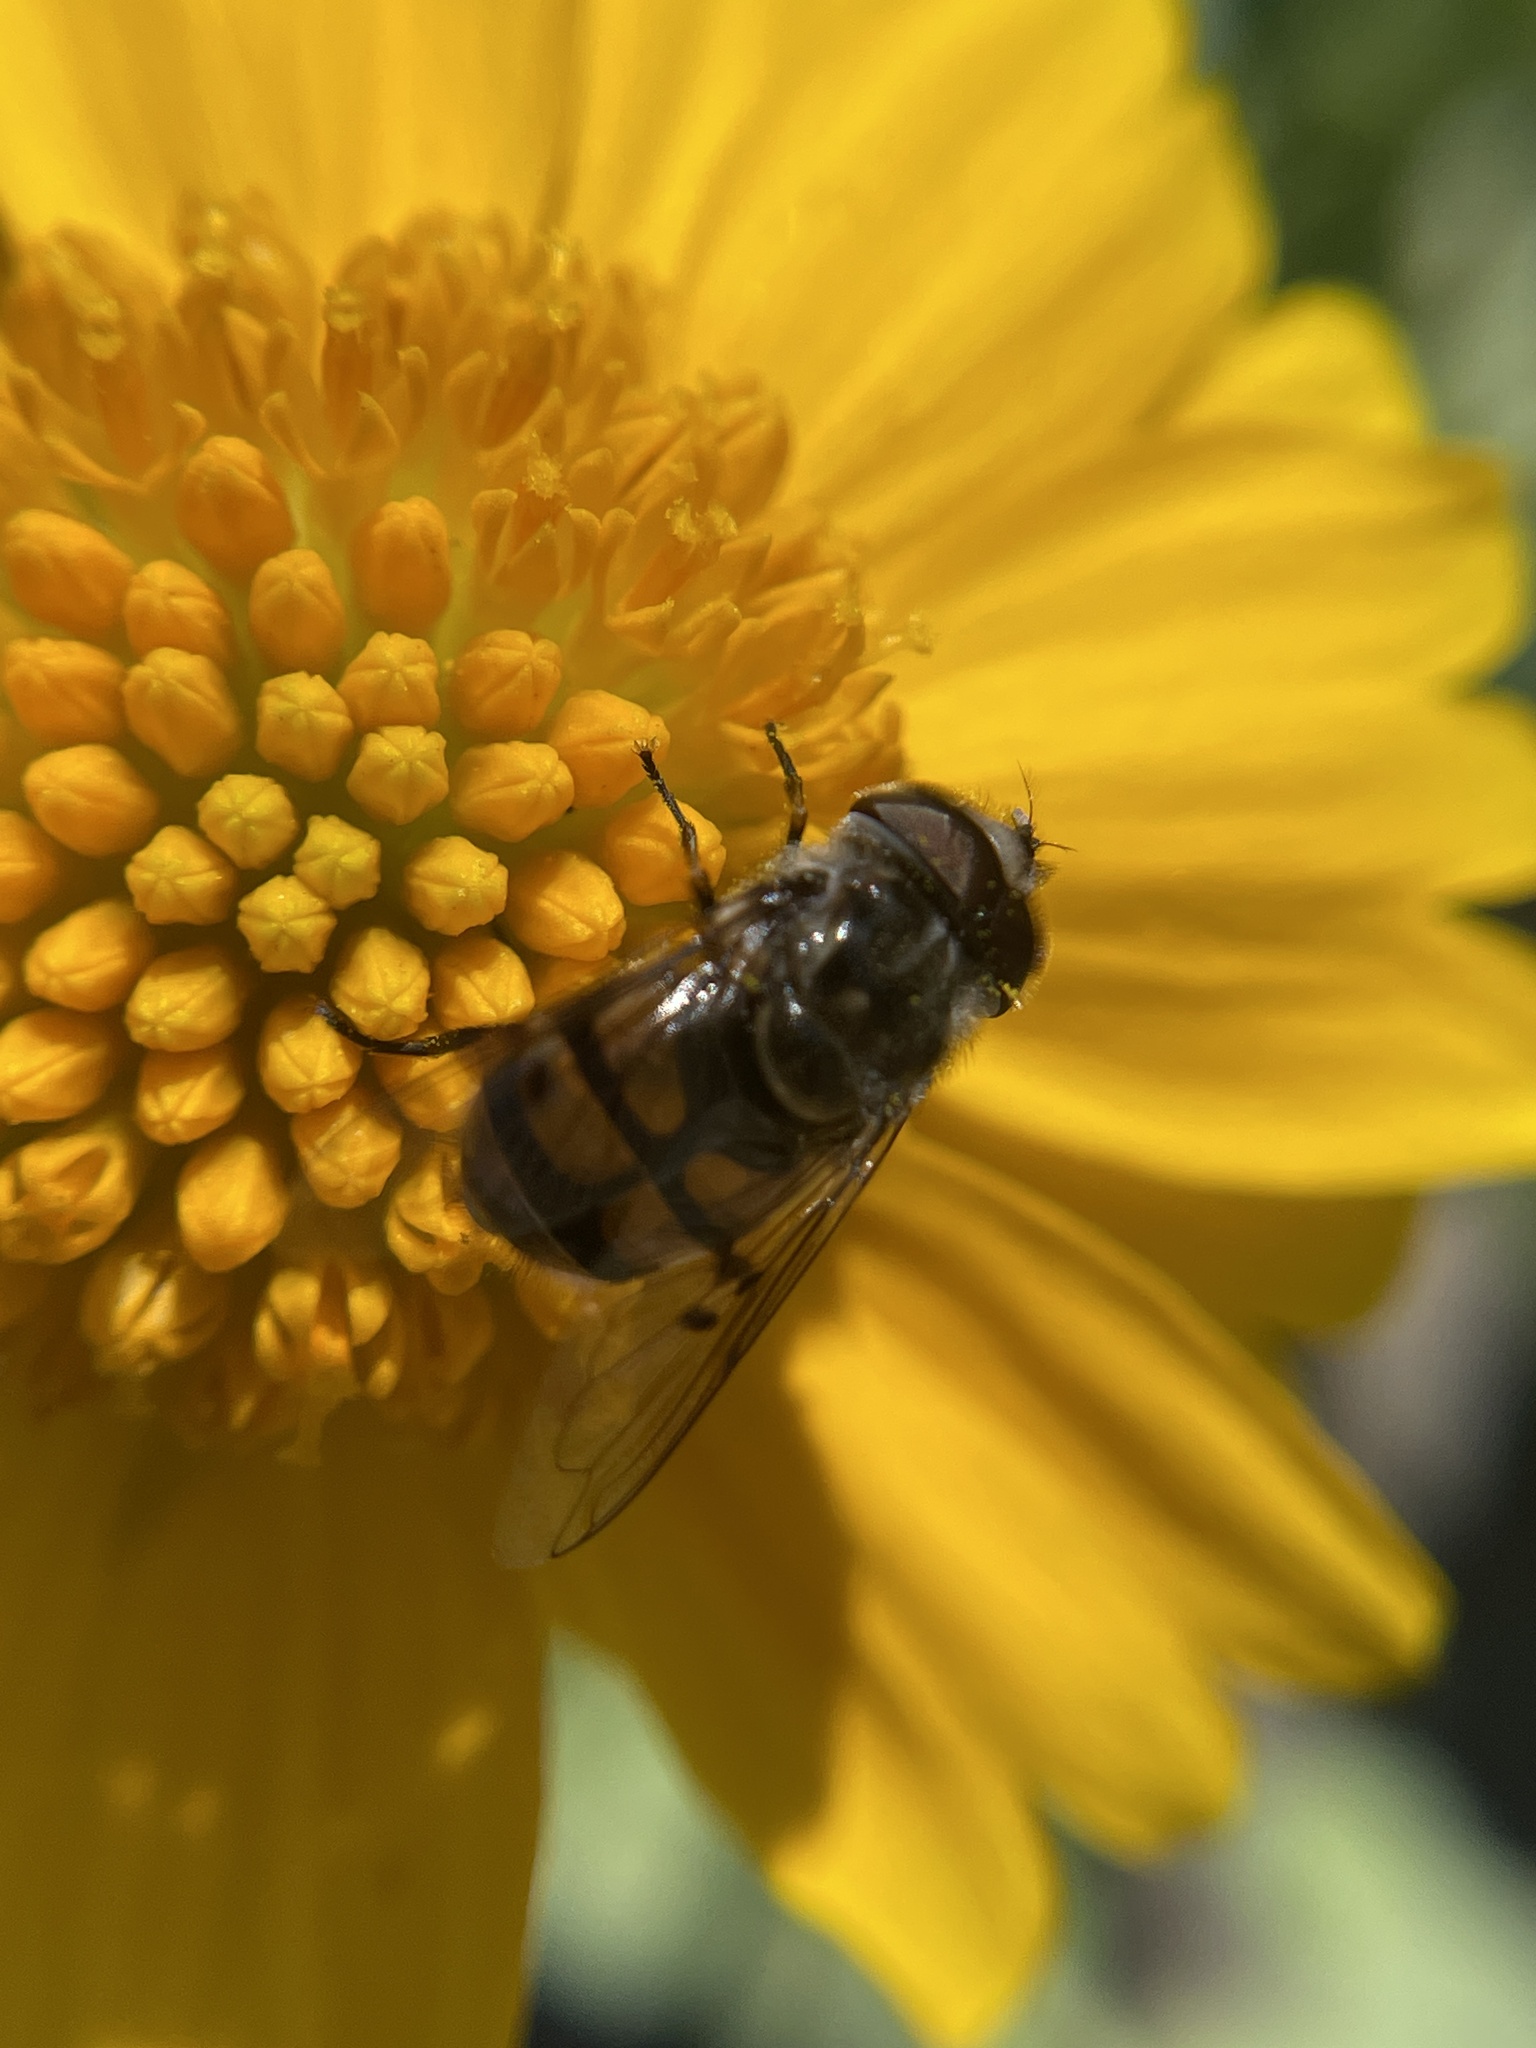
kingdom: Animalia
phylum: Arthropoda
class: Insecta
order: Diptera
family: Syrphidae
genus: Copestylum
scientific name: Copestylum avidum
